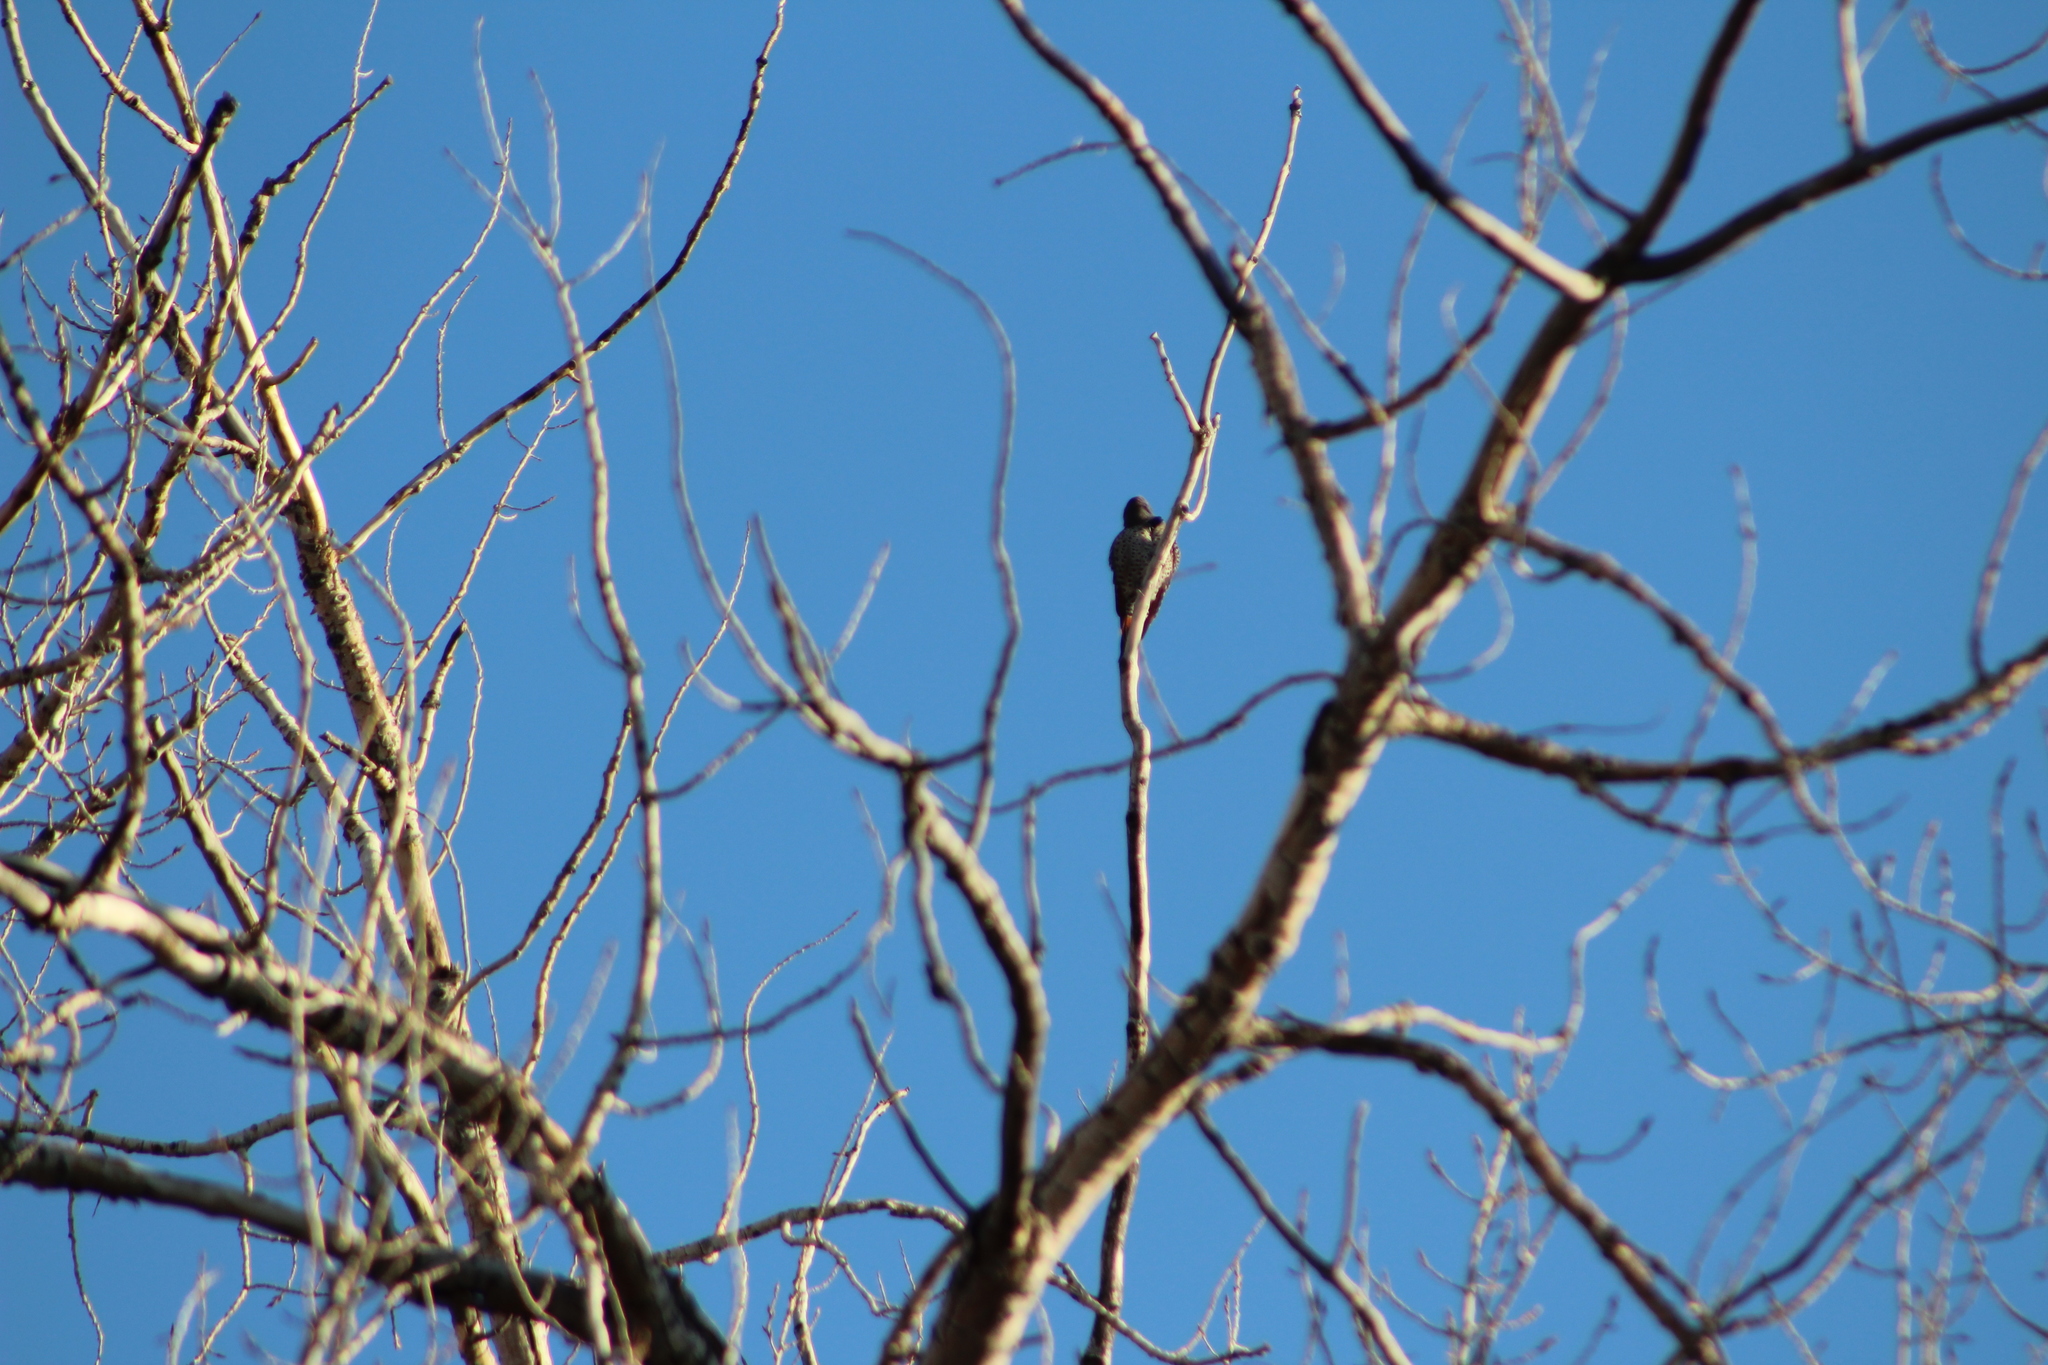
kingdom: Animalia
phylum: Chordata
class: Aves
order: Piciformes
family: Picidae
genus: Colaptes
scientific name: Colaptes auratus
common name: Northern flicker
